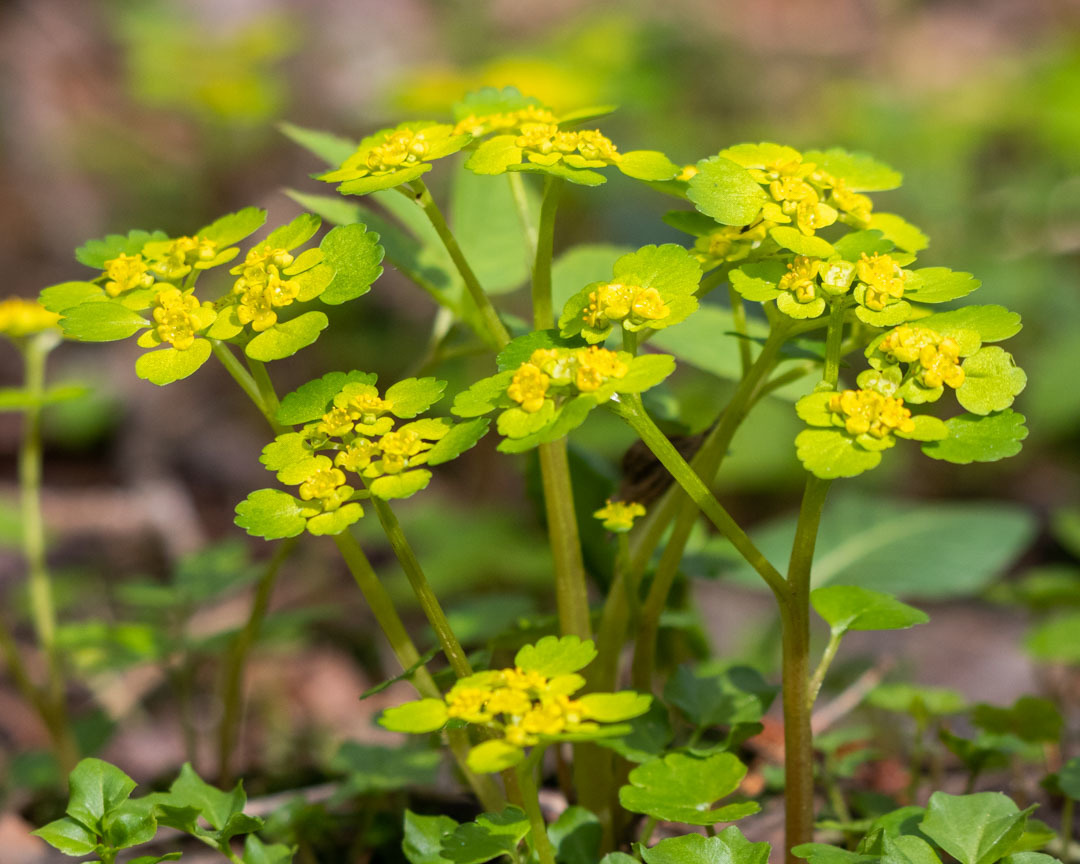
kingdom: Plantae
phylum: Tracheophyta
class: Magnoliopsida
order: Saxifragales
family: Saxifragaceae
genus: Chrysosplenium
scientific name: Chrysosplenium alternifolium
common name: Alternate-leaved golden-saxifrage
